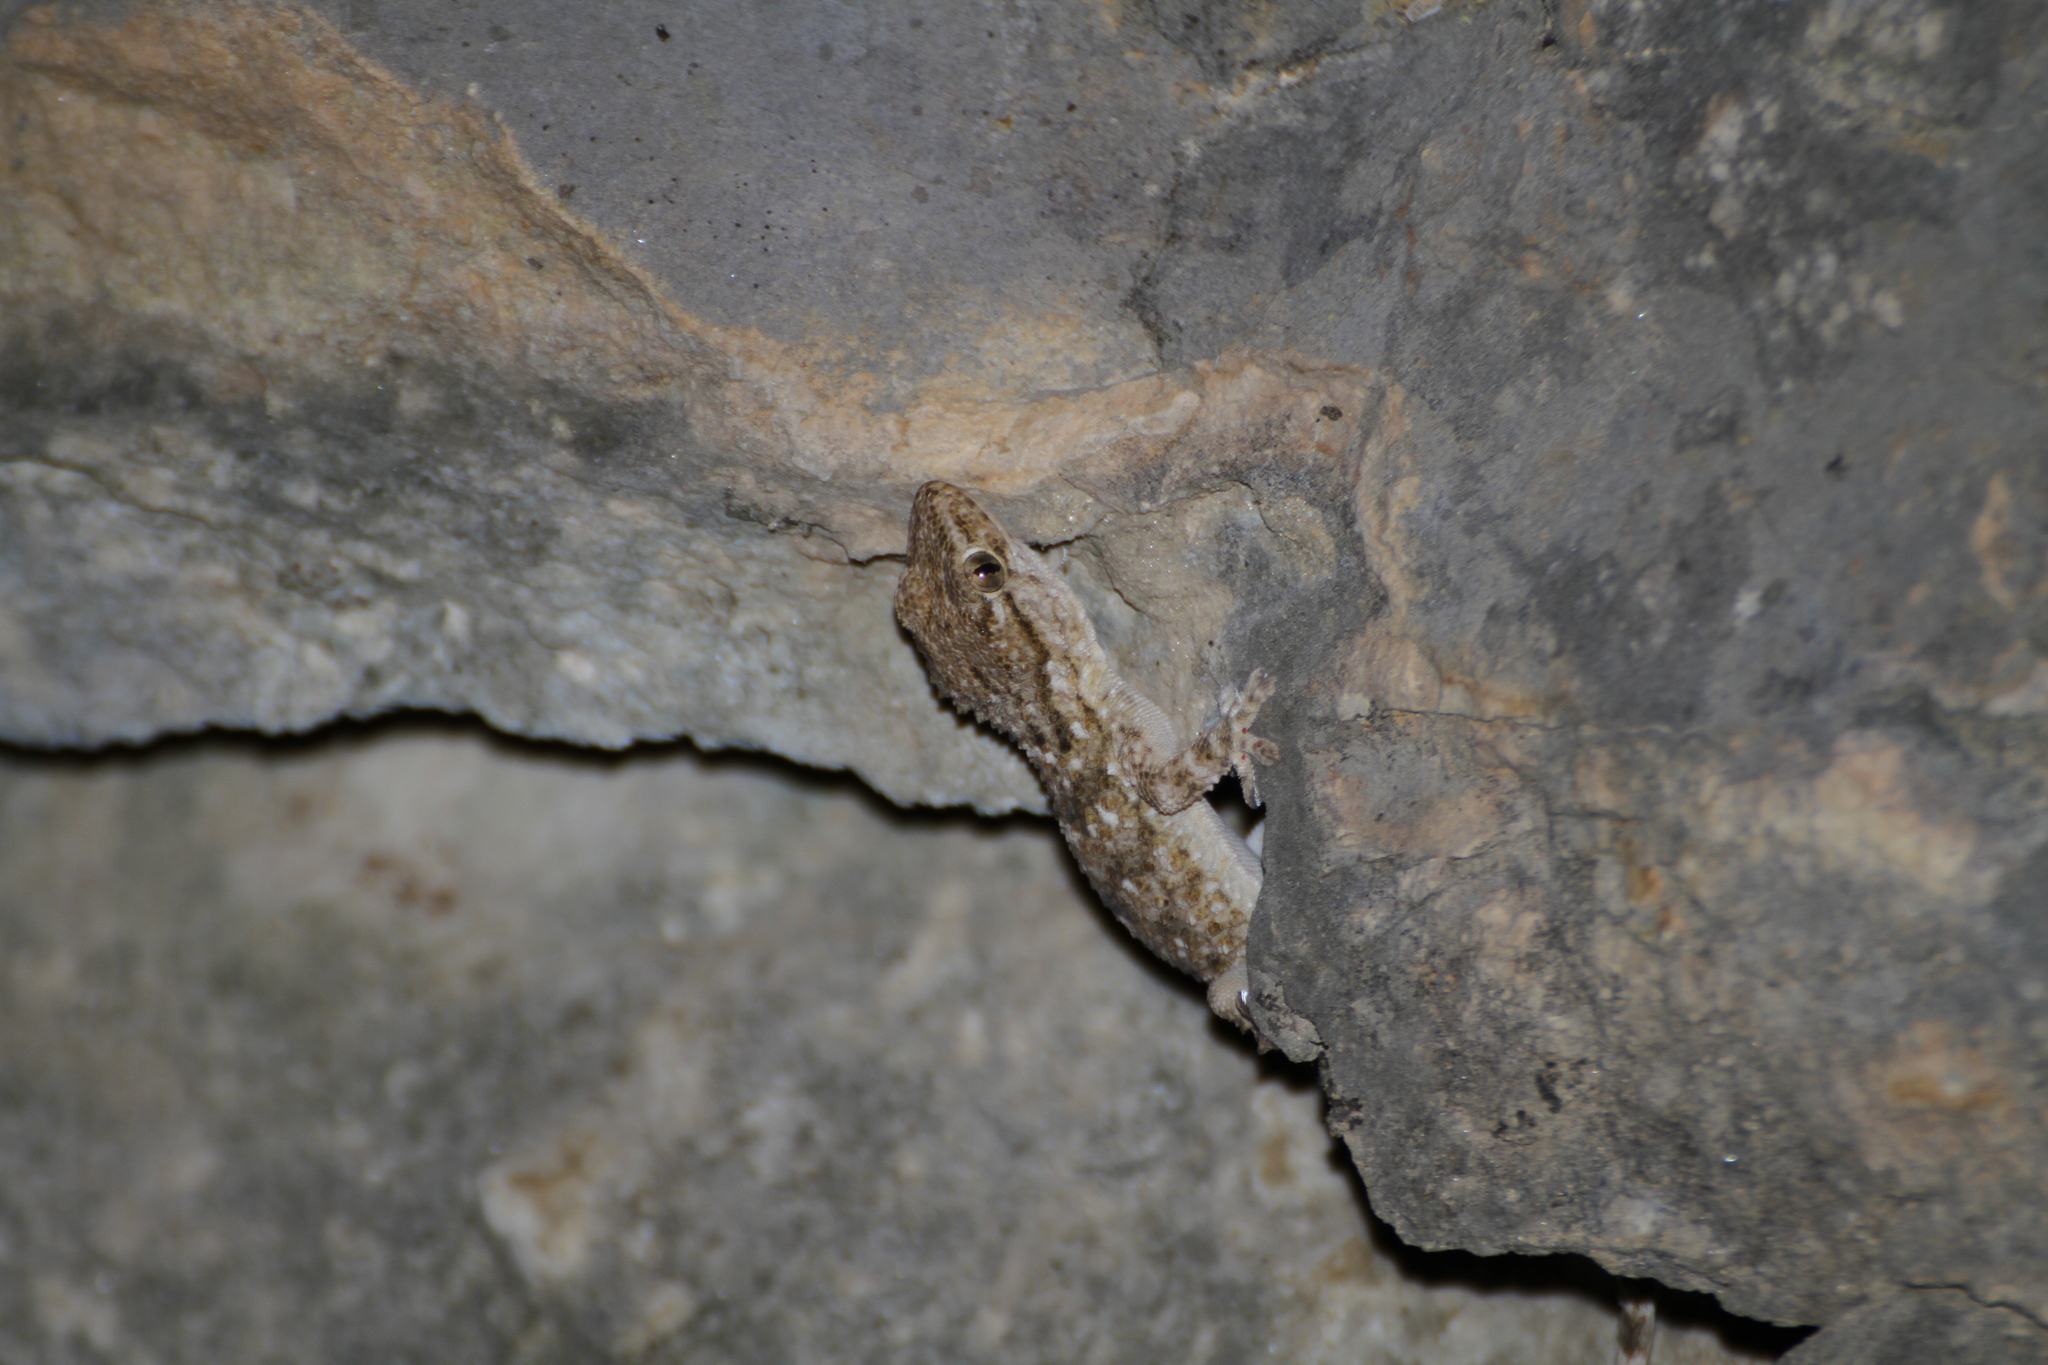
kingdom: Animalia
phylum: Chordata
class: Squamata
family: Phyllodactylidae
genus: Tarentola
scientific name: Tarentola mauritanica
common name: Moorish gecko
